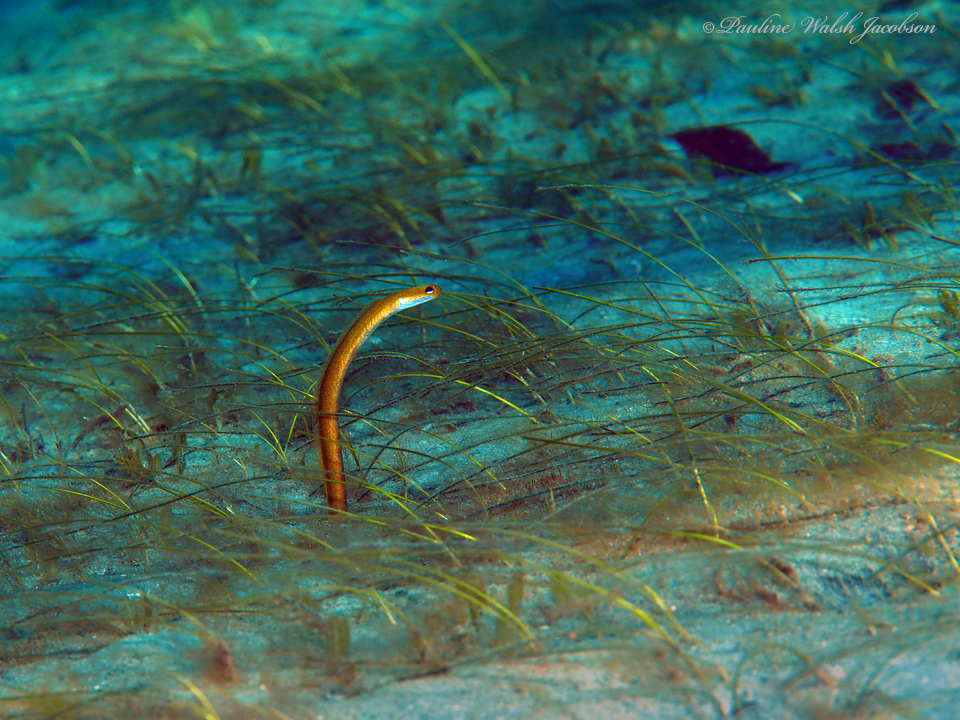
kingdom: Animalia
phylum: Chordata
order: Anguilliformes
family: Congridae
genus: Heteroconger
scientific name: Heteroconger luteolus
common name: Yellow garden eel
